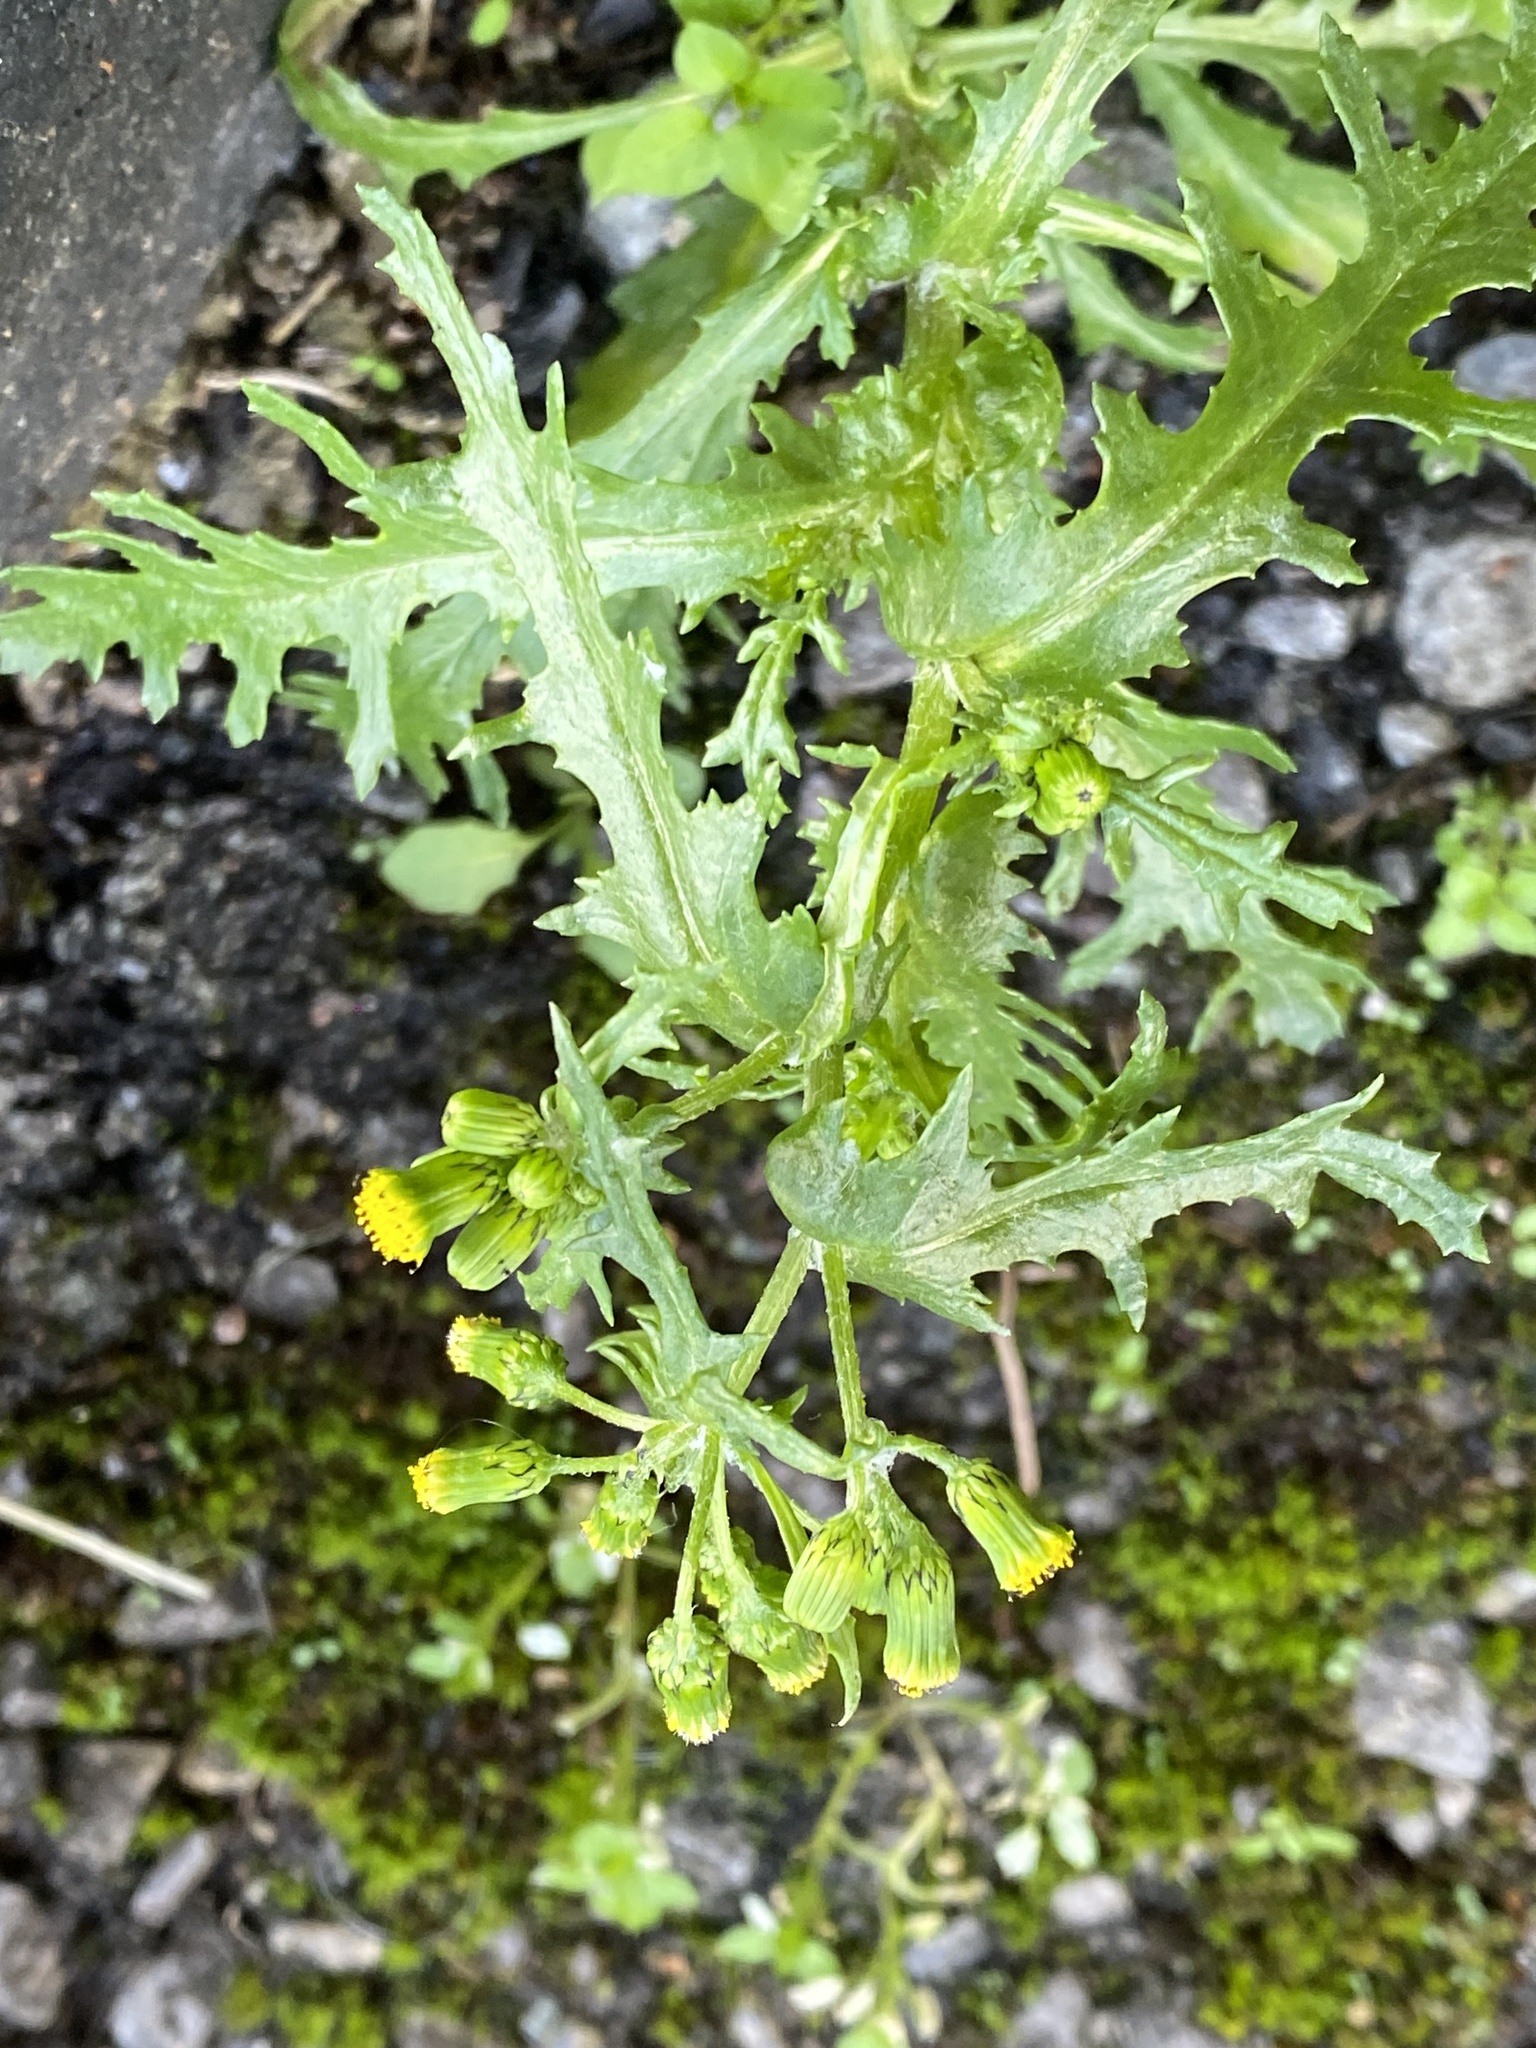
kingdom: Plantae
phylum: Tracheophyta
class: Magnoliopsida
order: Asterales
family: Asteraceae
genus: Senecio
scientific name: Senecio vulgaris
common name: Old-man-in-the-spring
